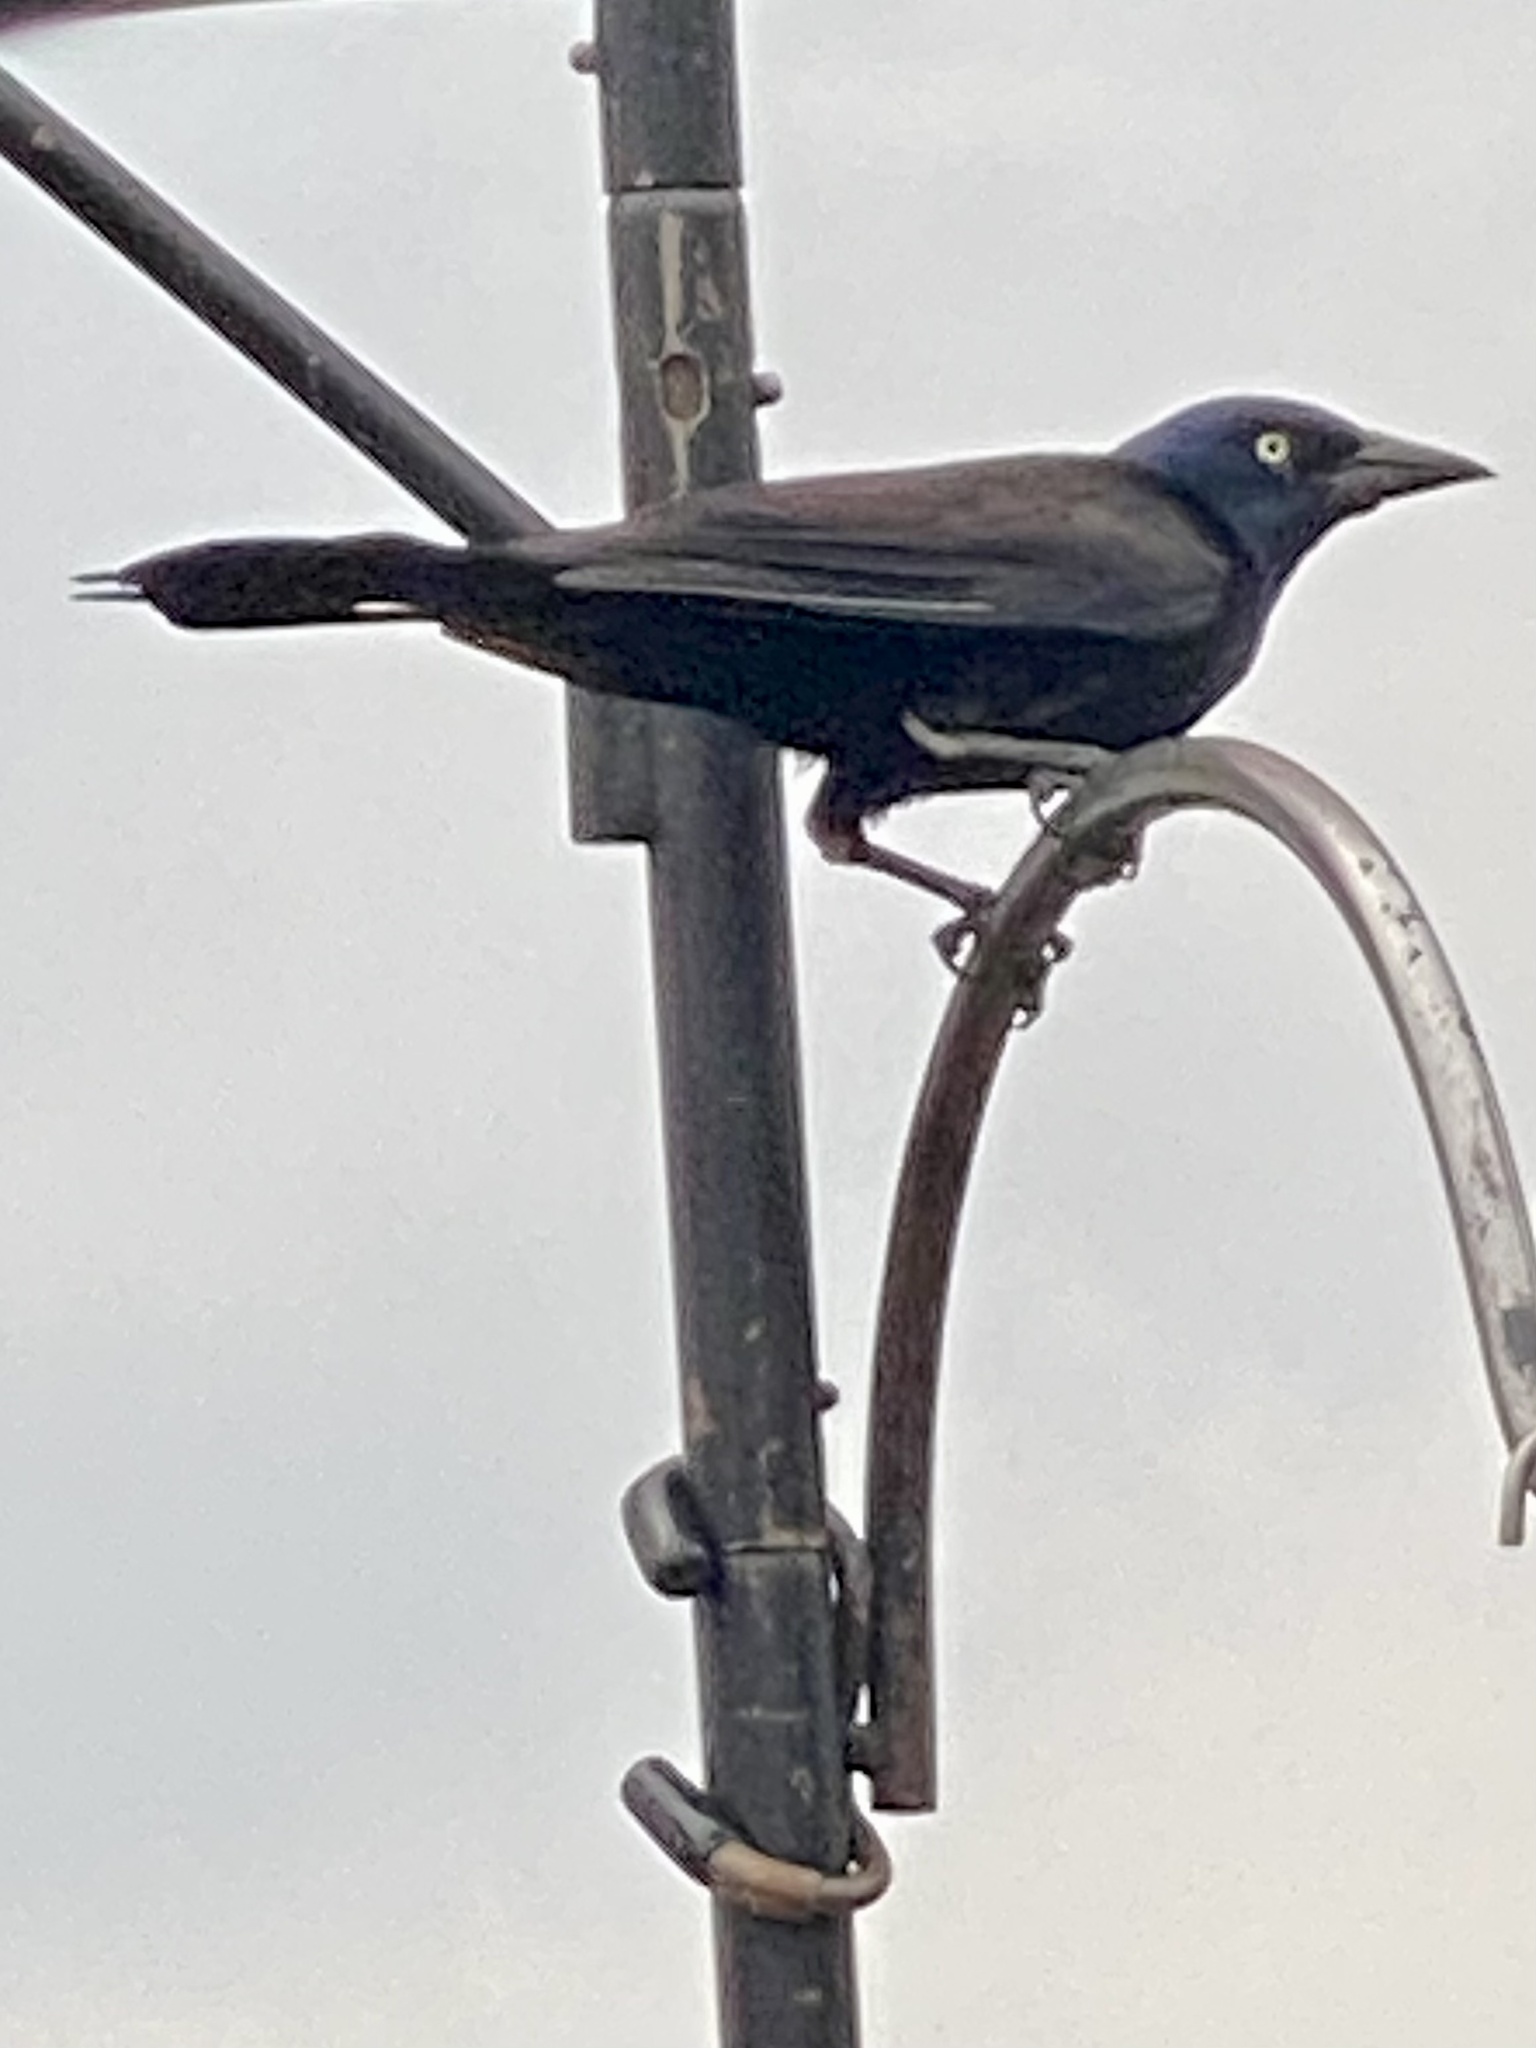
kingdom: Animalia
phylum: Chordata
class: Aves
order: Passeriformes
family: Icteridae
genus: Quiscalus
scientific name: Quiscalus quiscula
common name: Common grackle
